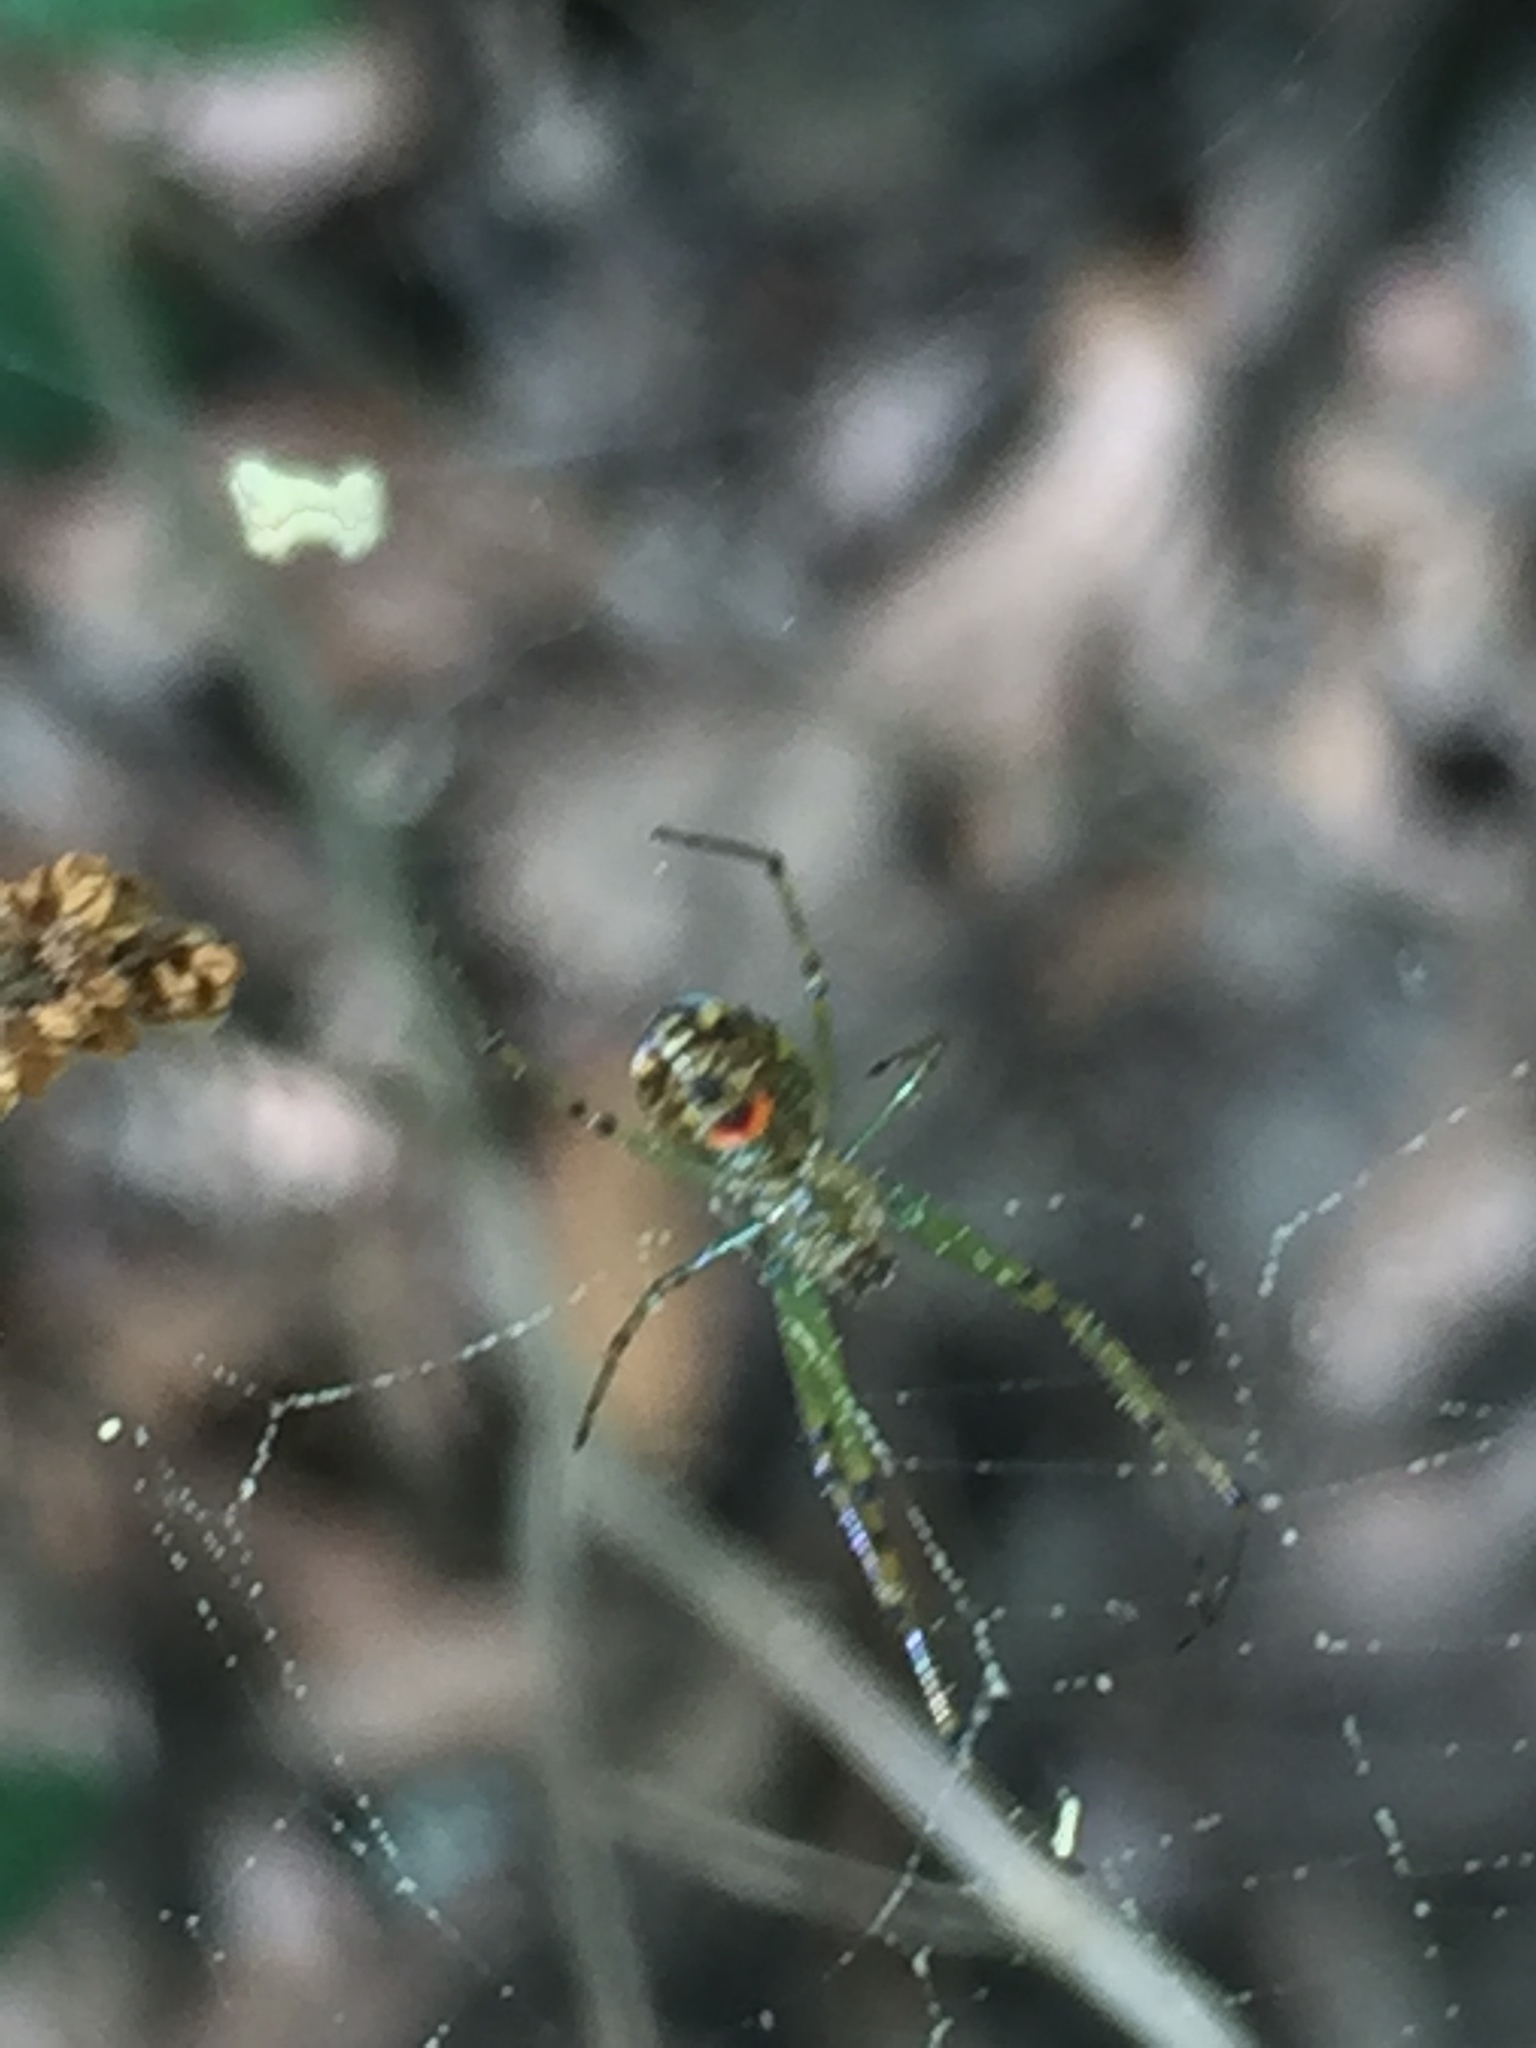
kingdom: Animalia
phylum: Arthropoda
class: Arachnida
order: Araneae
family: Tetragnathidae
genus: Leucauge
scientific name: Leucauge
